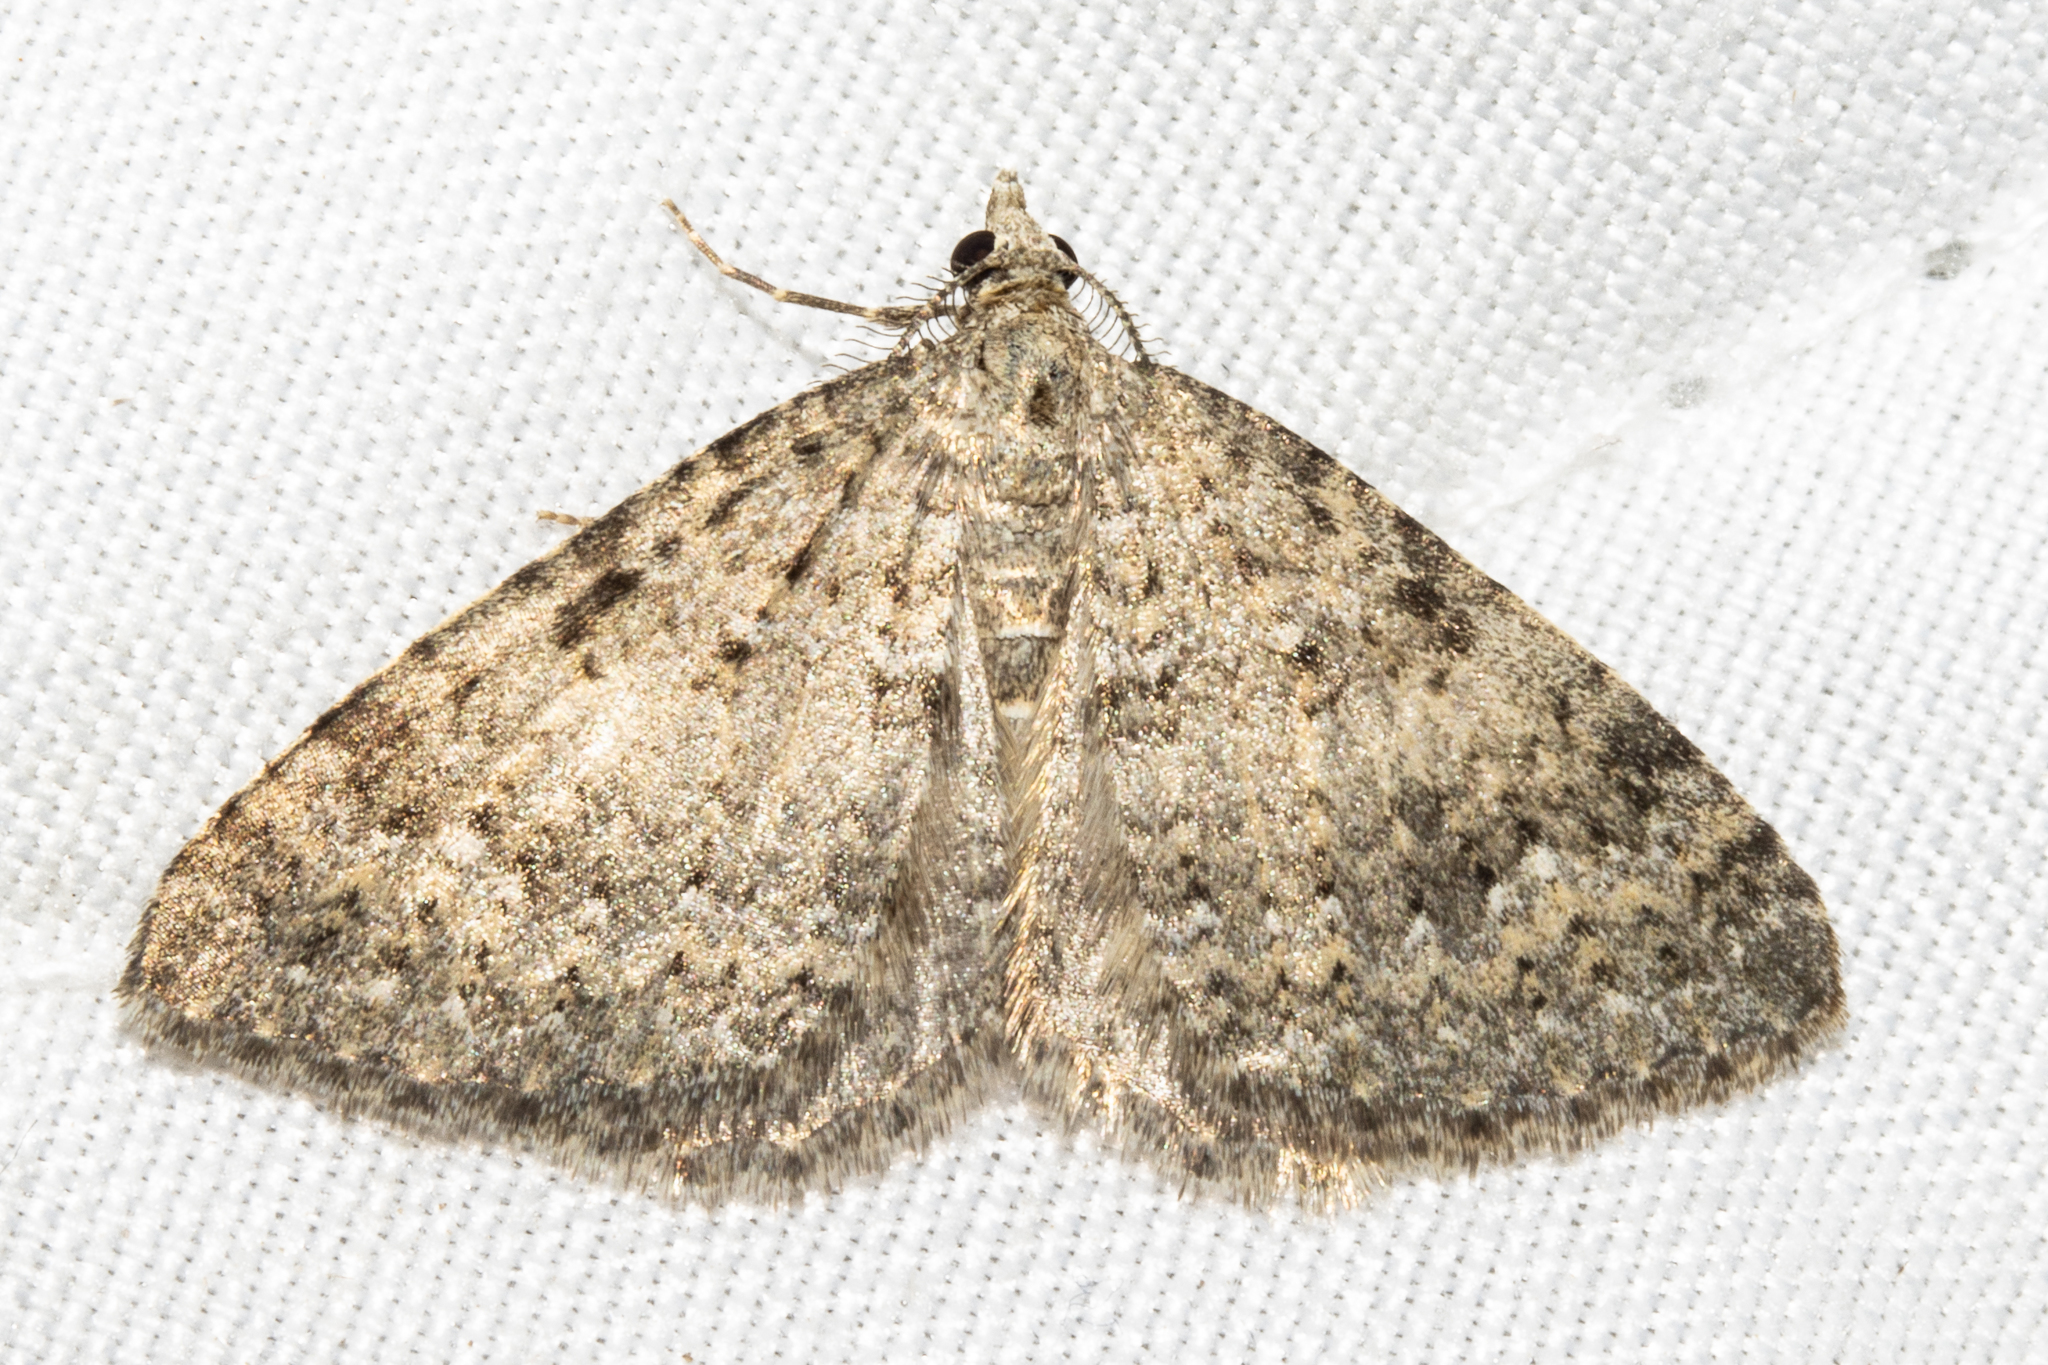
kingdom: Animalia
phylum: Arthropoda
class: Insecta
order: Lepidoptera
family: Geometridae
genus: Helastia
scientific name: Helastia corcularia
